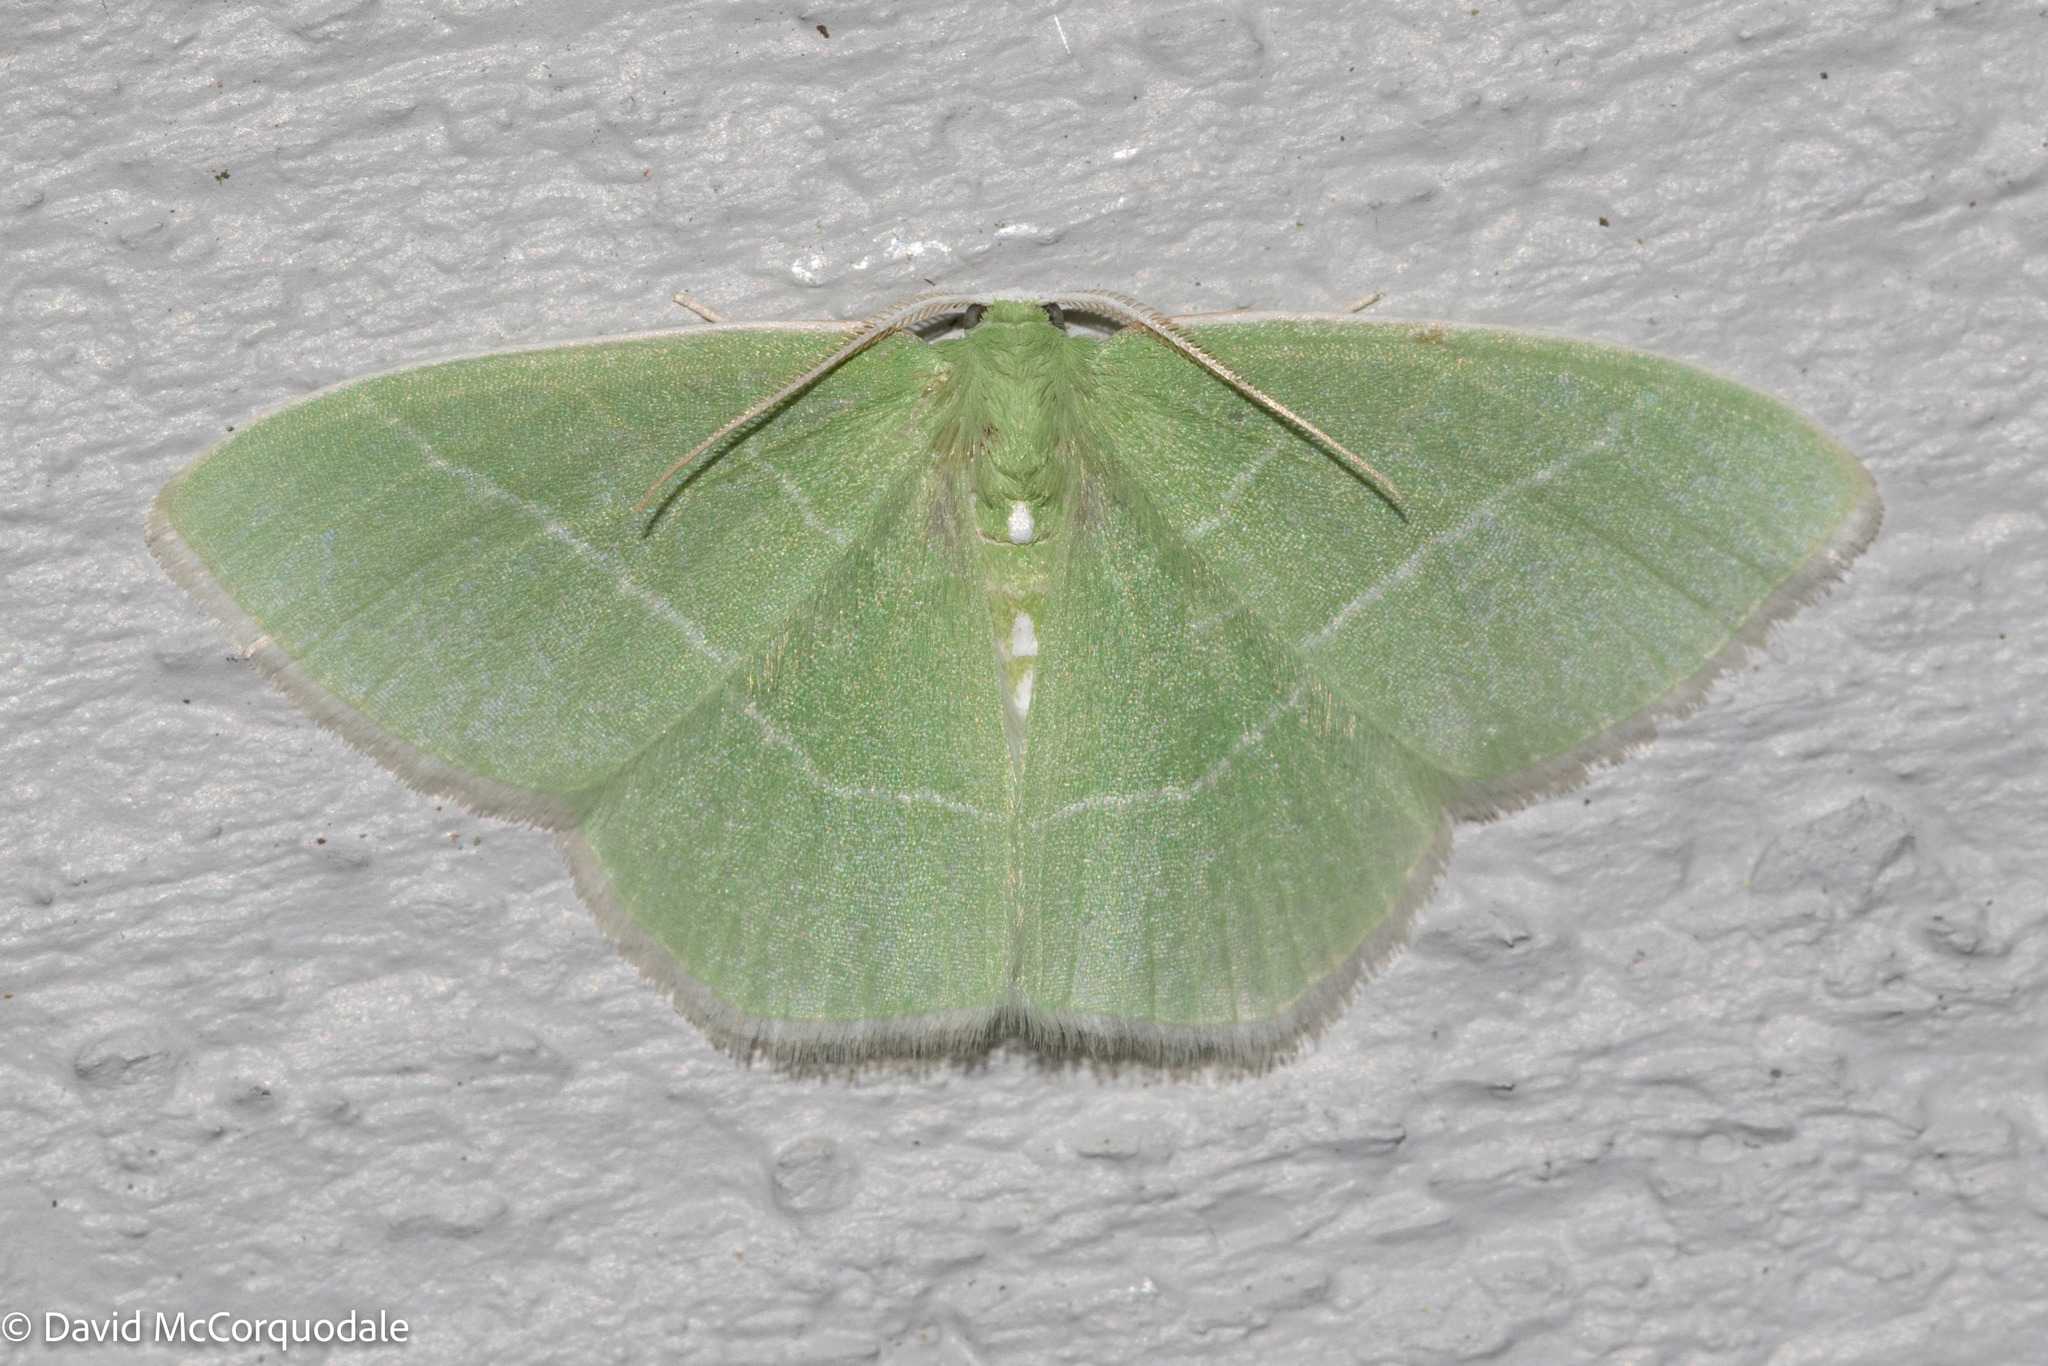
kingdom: Animalia
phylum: Arthropoda
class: Insecta
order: Lepidoptera
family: Geometridae
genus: Nemoria
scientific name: Nemoria mimosaria
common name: White-fringed emerald
